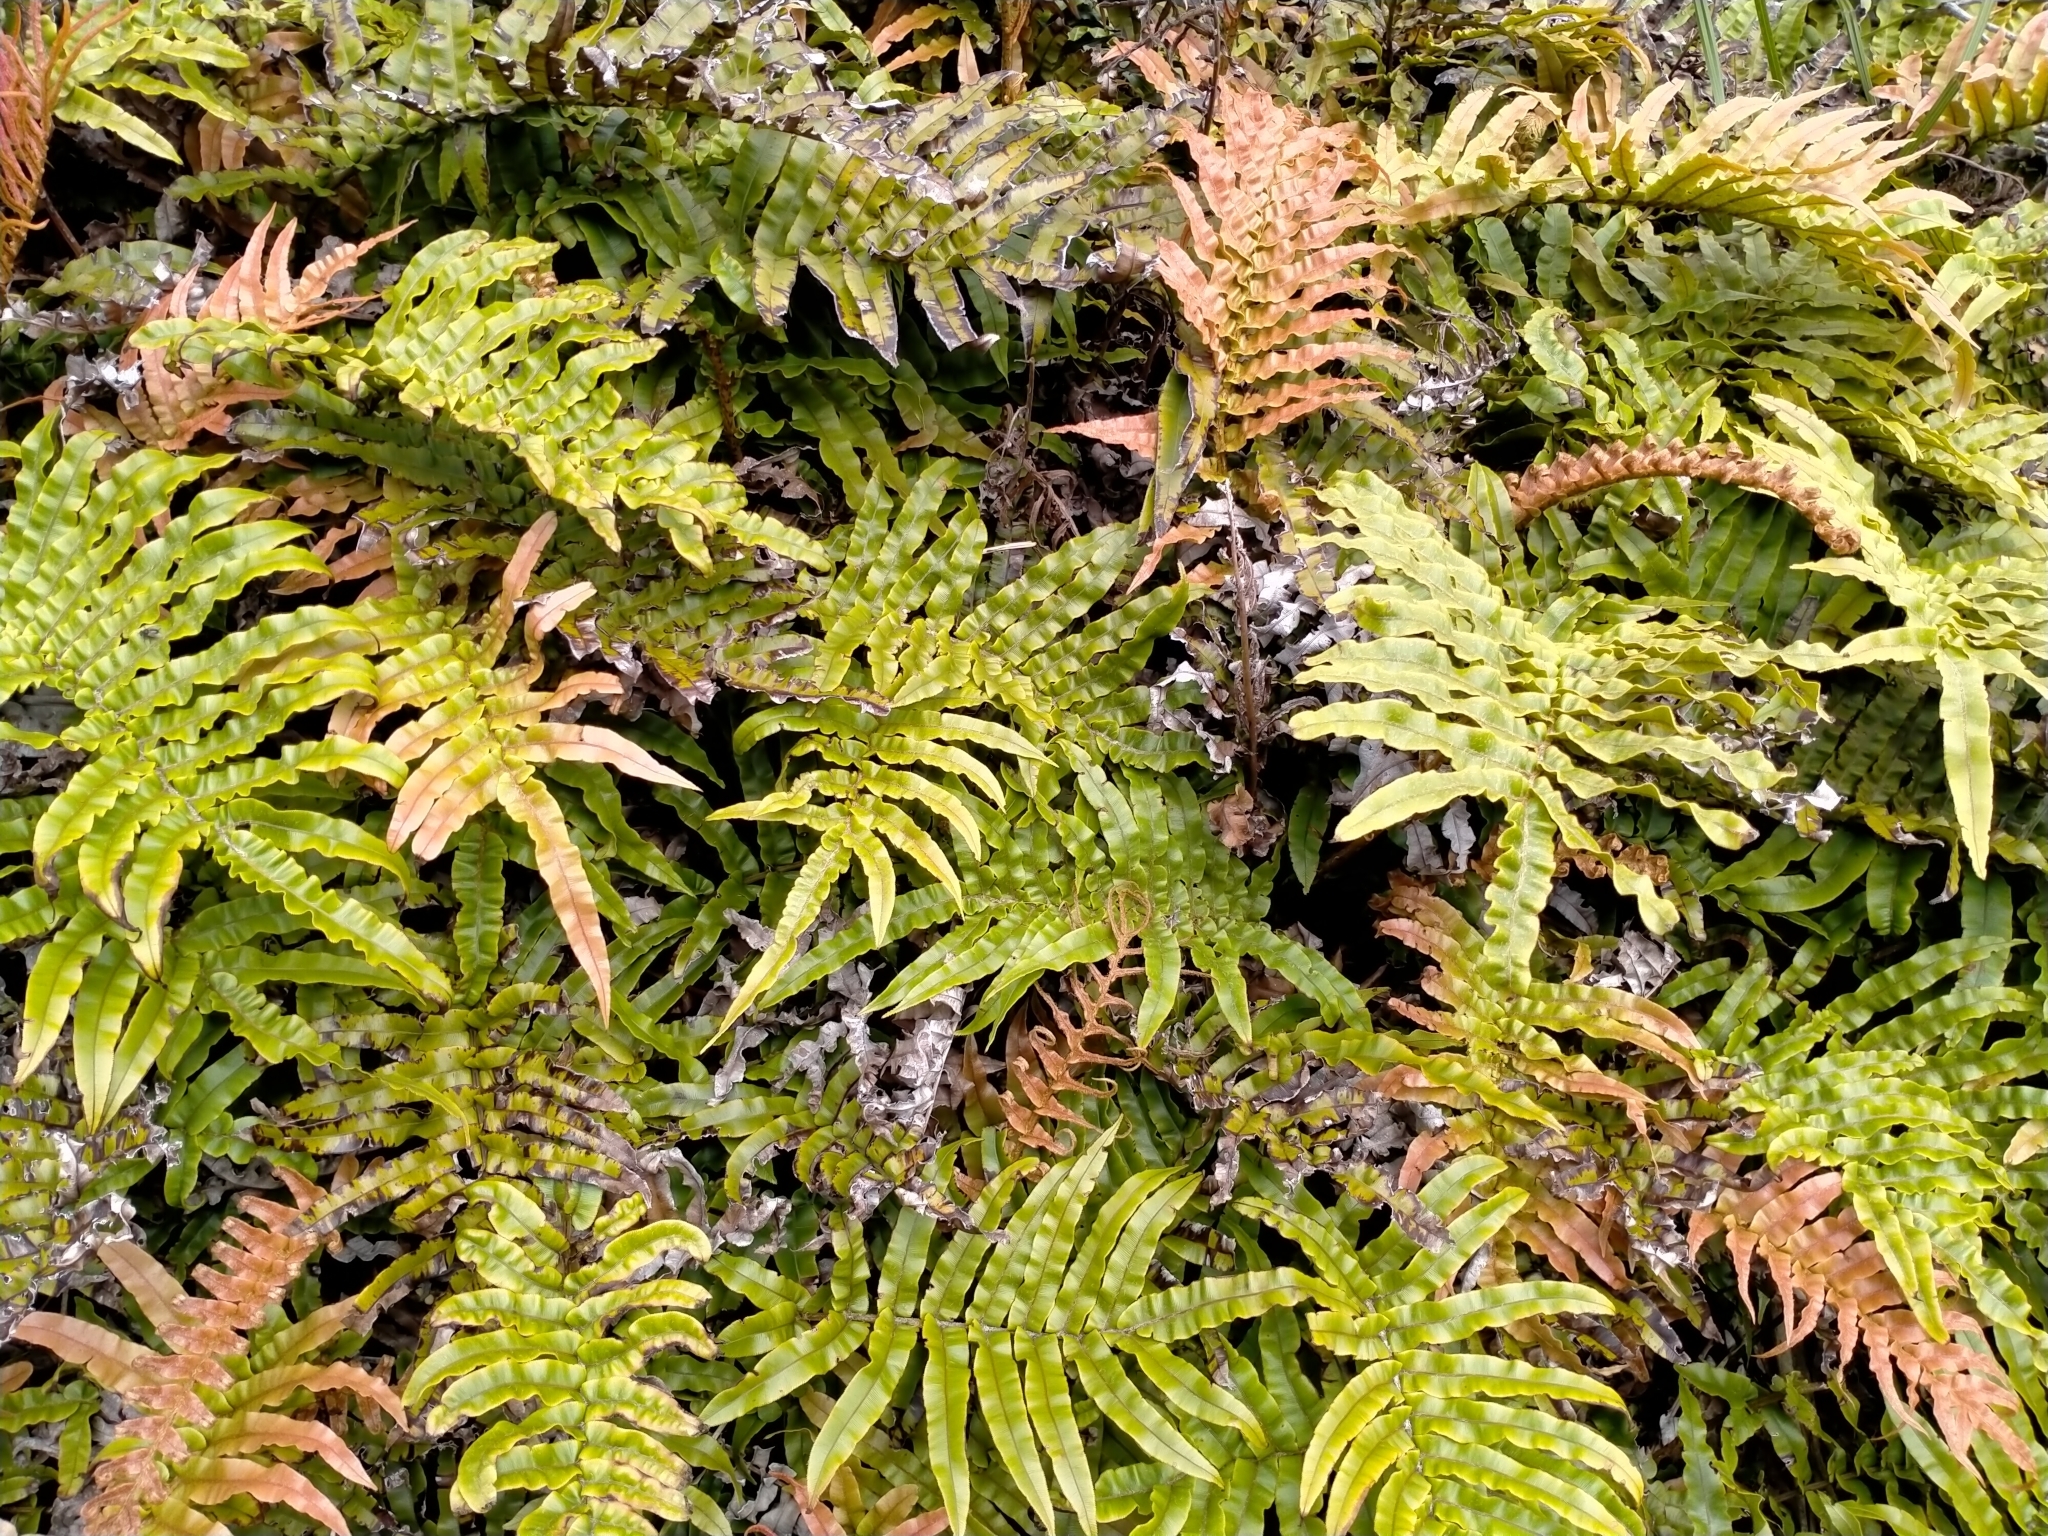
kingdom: Plantae
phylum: Tracheophyta
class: Polypodiopsida
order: Polypodiales
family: Blechnaceae
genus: Parablechnum
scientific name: Parablechnum montanum
